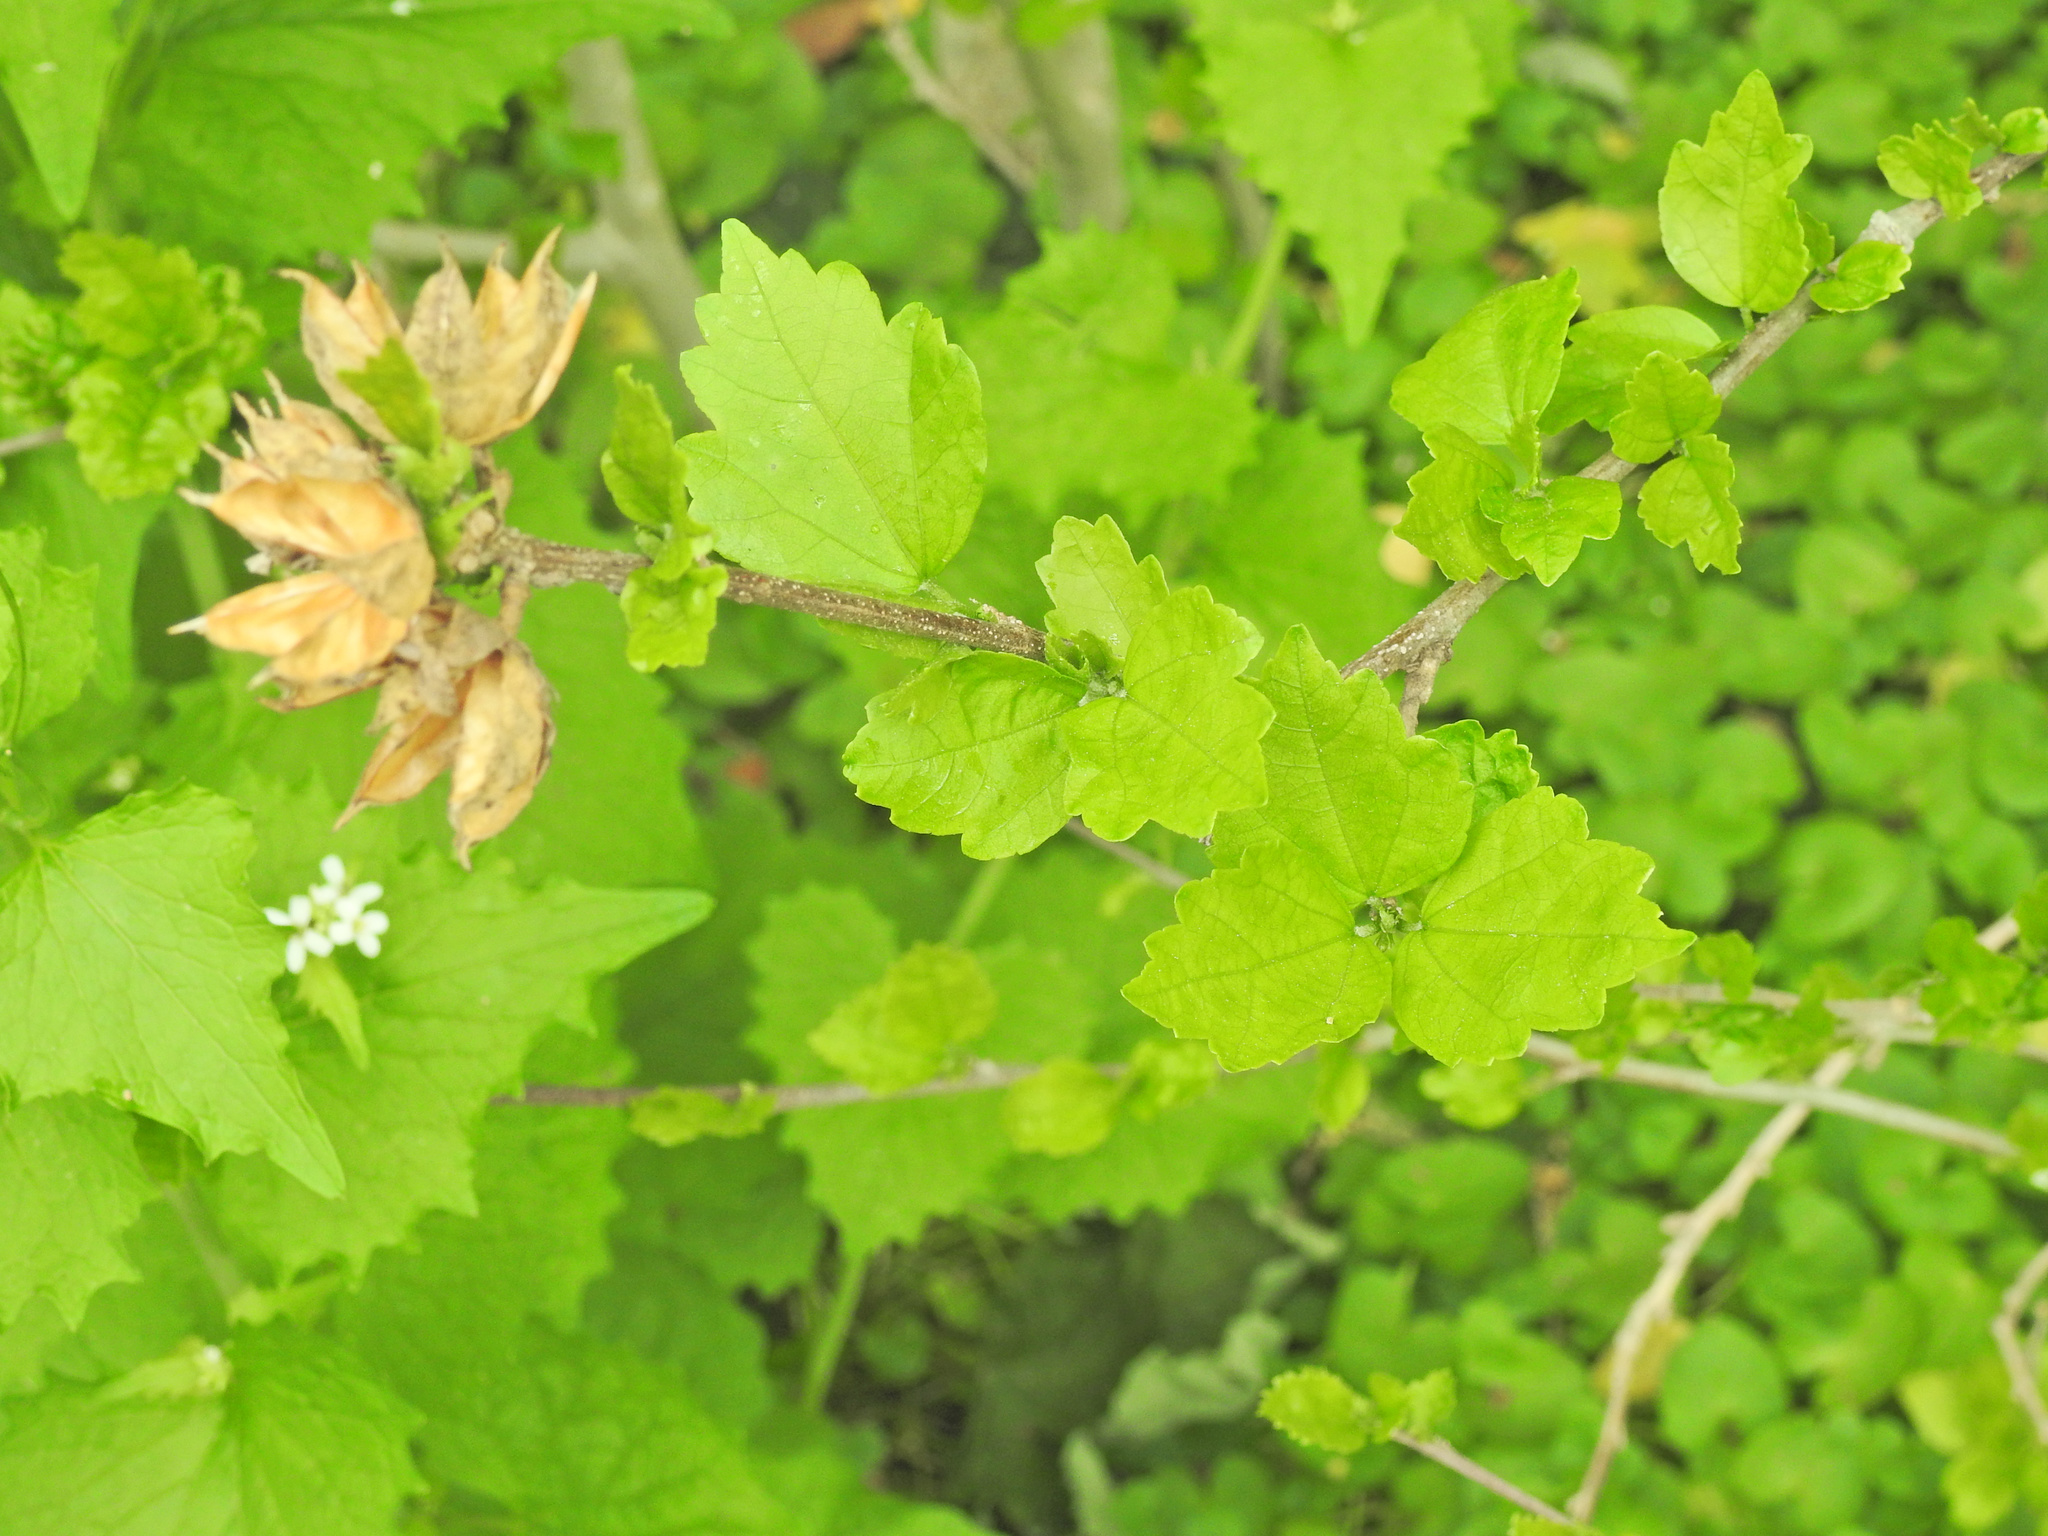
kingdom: Plantae
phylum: Tracheophyta
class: Magnoliopsida
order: Malvales
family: Malvaceae
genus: Hibiscus
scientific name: Hibiscus syriacus
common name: Syrian ketmia
